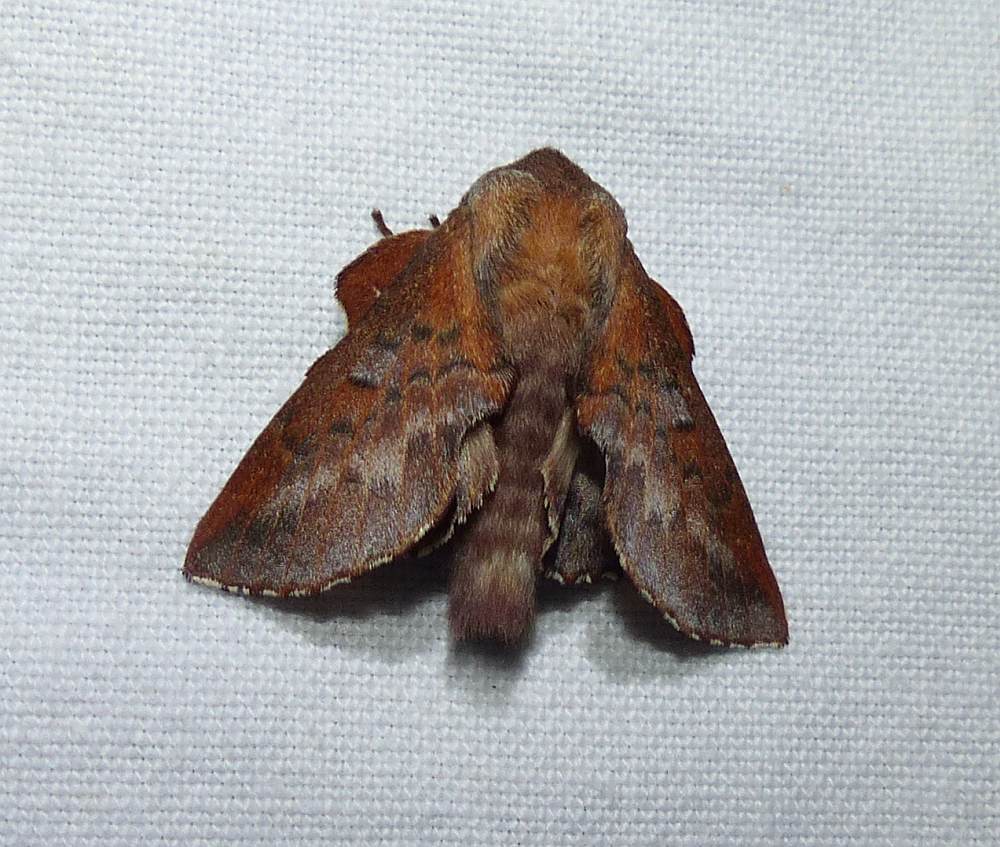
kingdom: Animalia
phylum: Arthropoda
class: Insecta
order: Lepidoptera
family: Lasiocampidae
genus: Phyllodesma
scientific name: Phyllodesma americana
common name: American lappet moth
